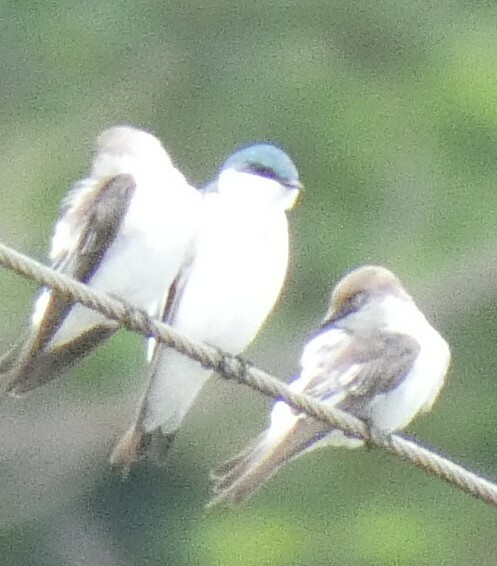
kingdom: Animalia
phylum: Chordata
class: Aves
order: Passeriformes
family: Hirundinidae
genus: Tachycineta
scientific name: Tachycineta albiventer
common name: White-winged swallow
